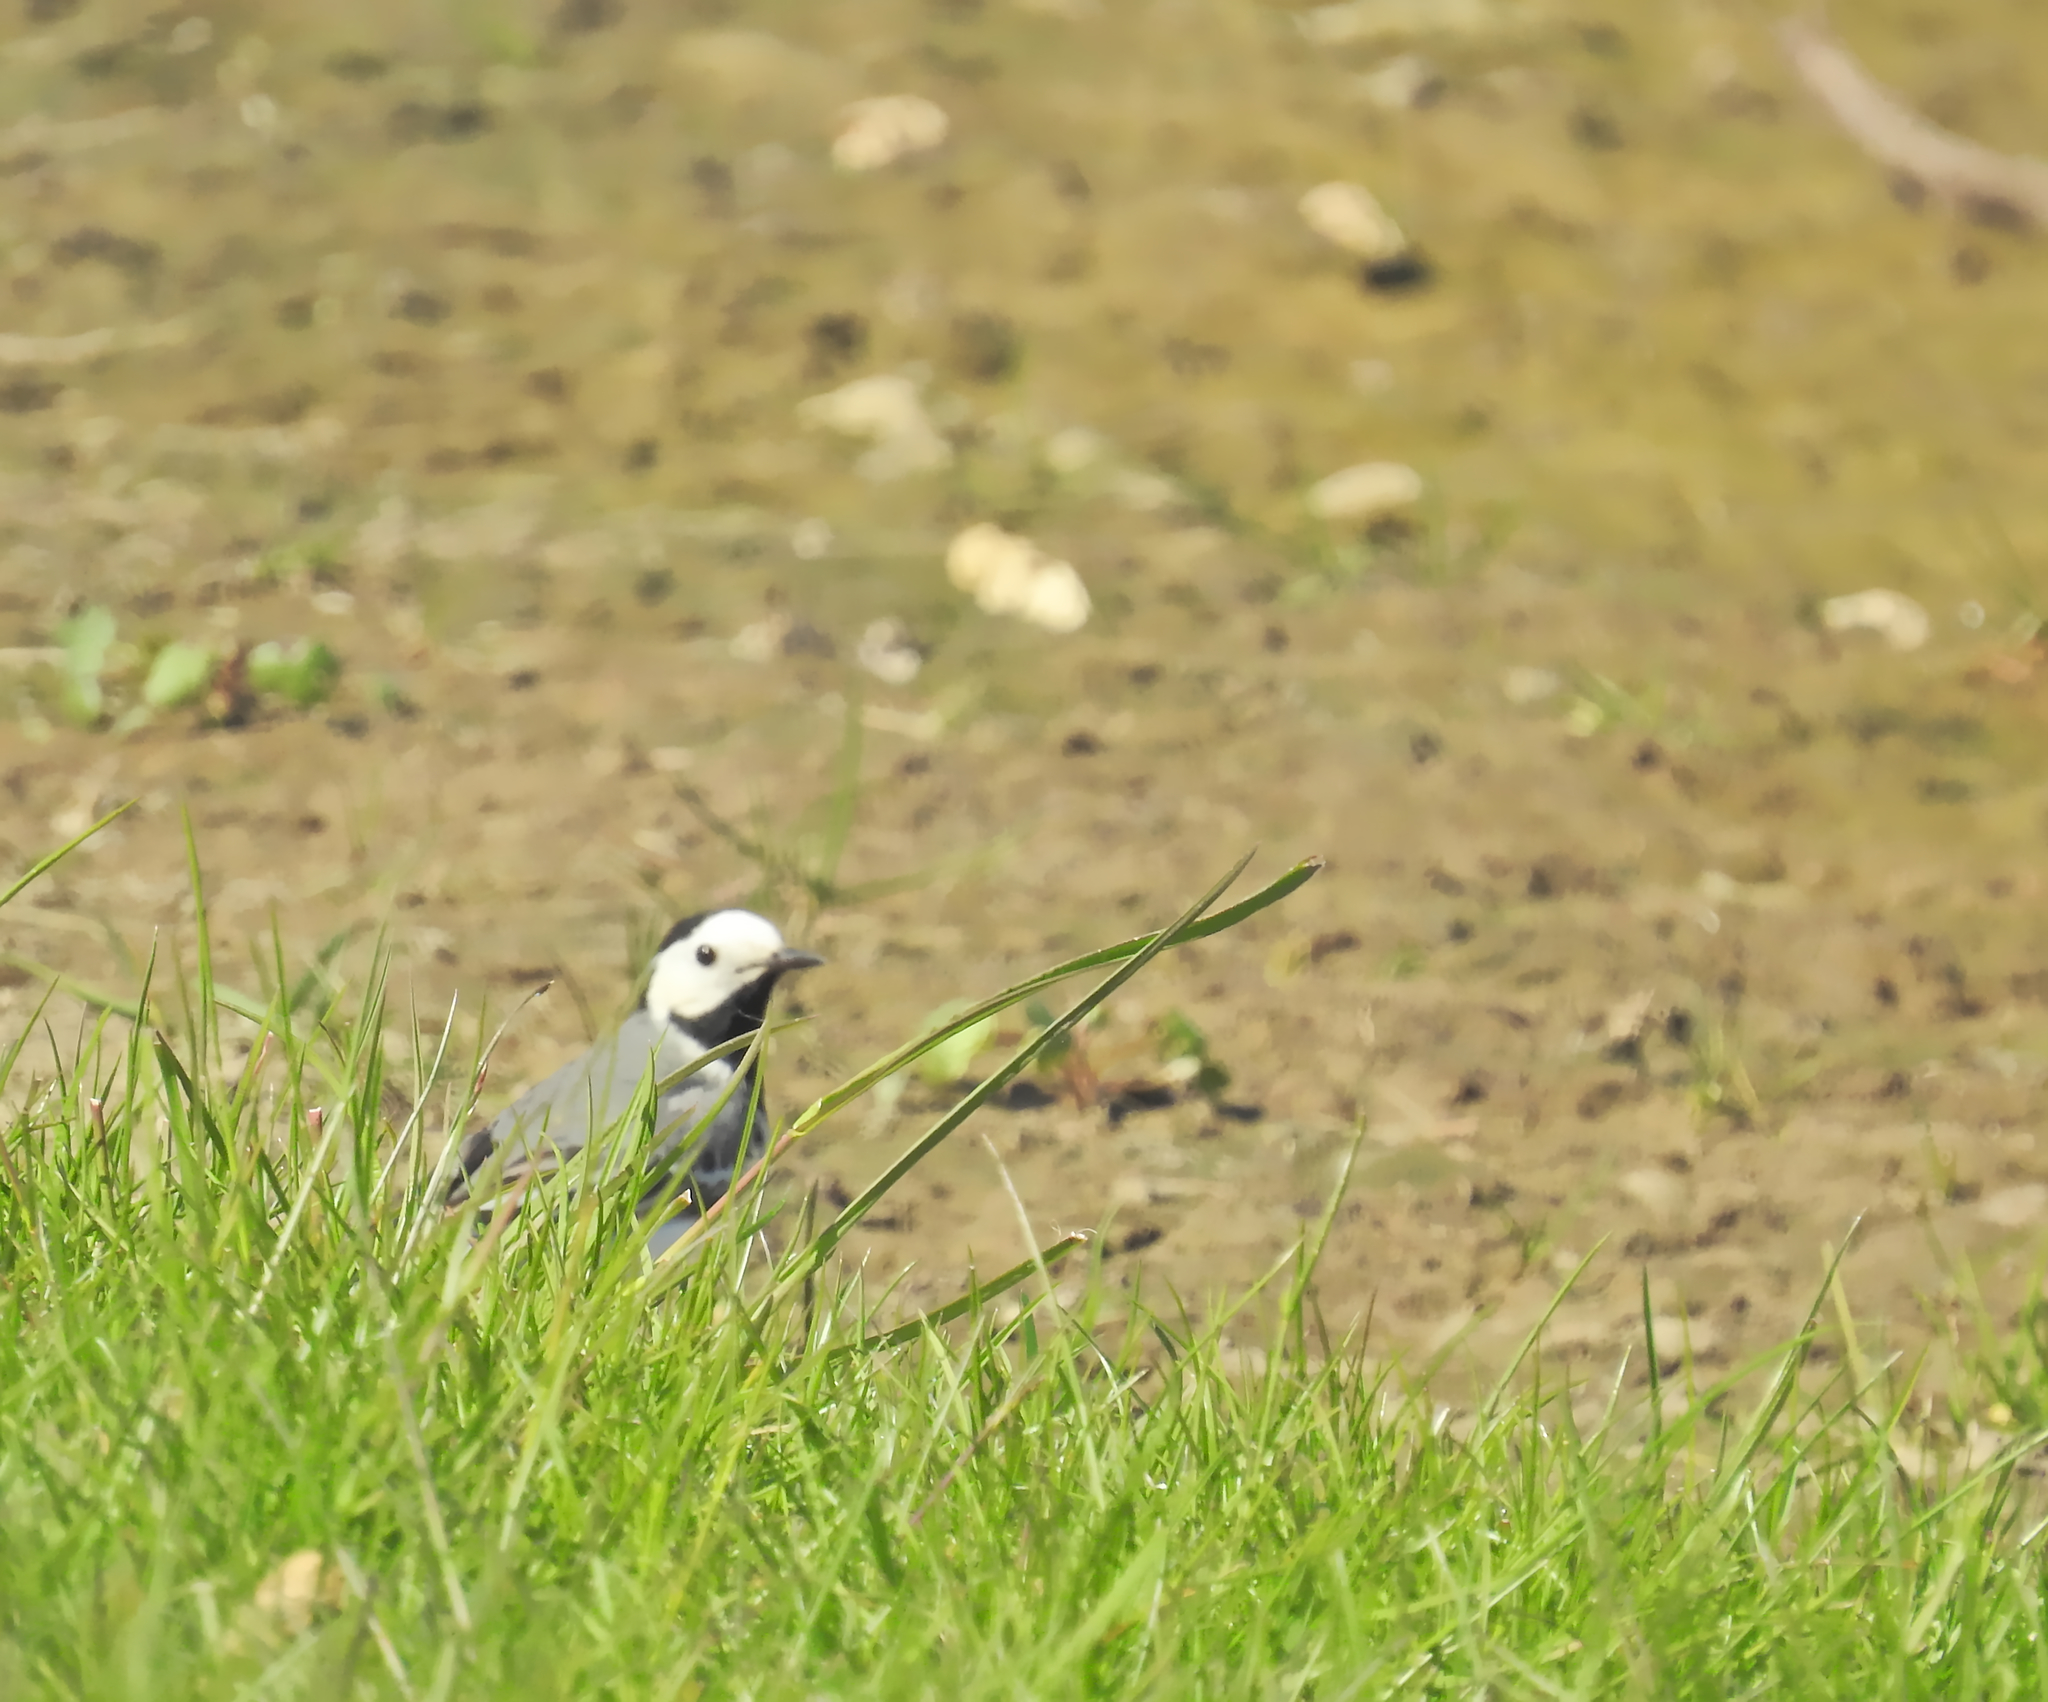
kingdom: Animalia
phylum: Chordata
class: Aves
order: Passeriformes
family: Motacillidae
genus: Motacilla
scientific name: Motacilla alba
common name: White wagtail
